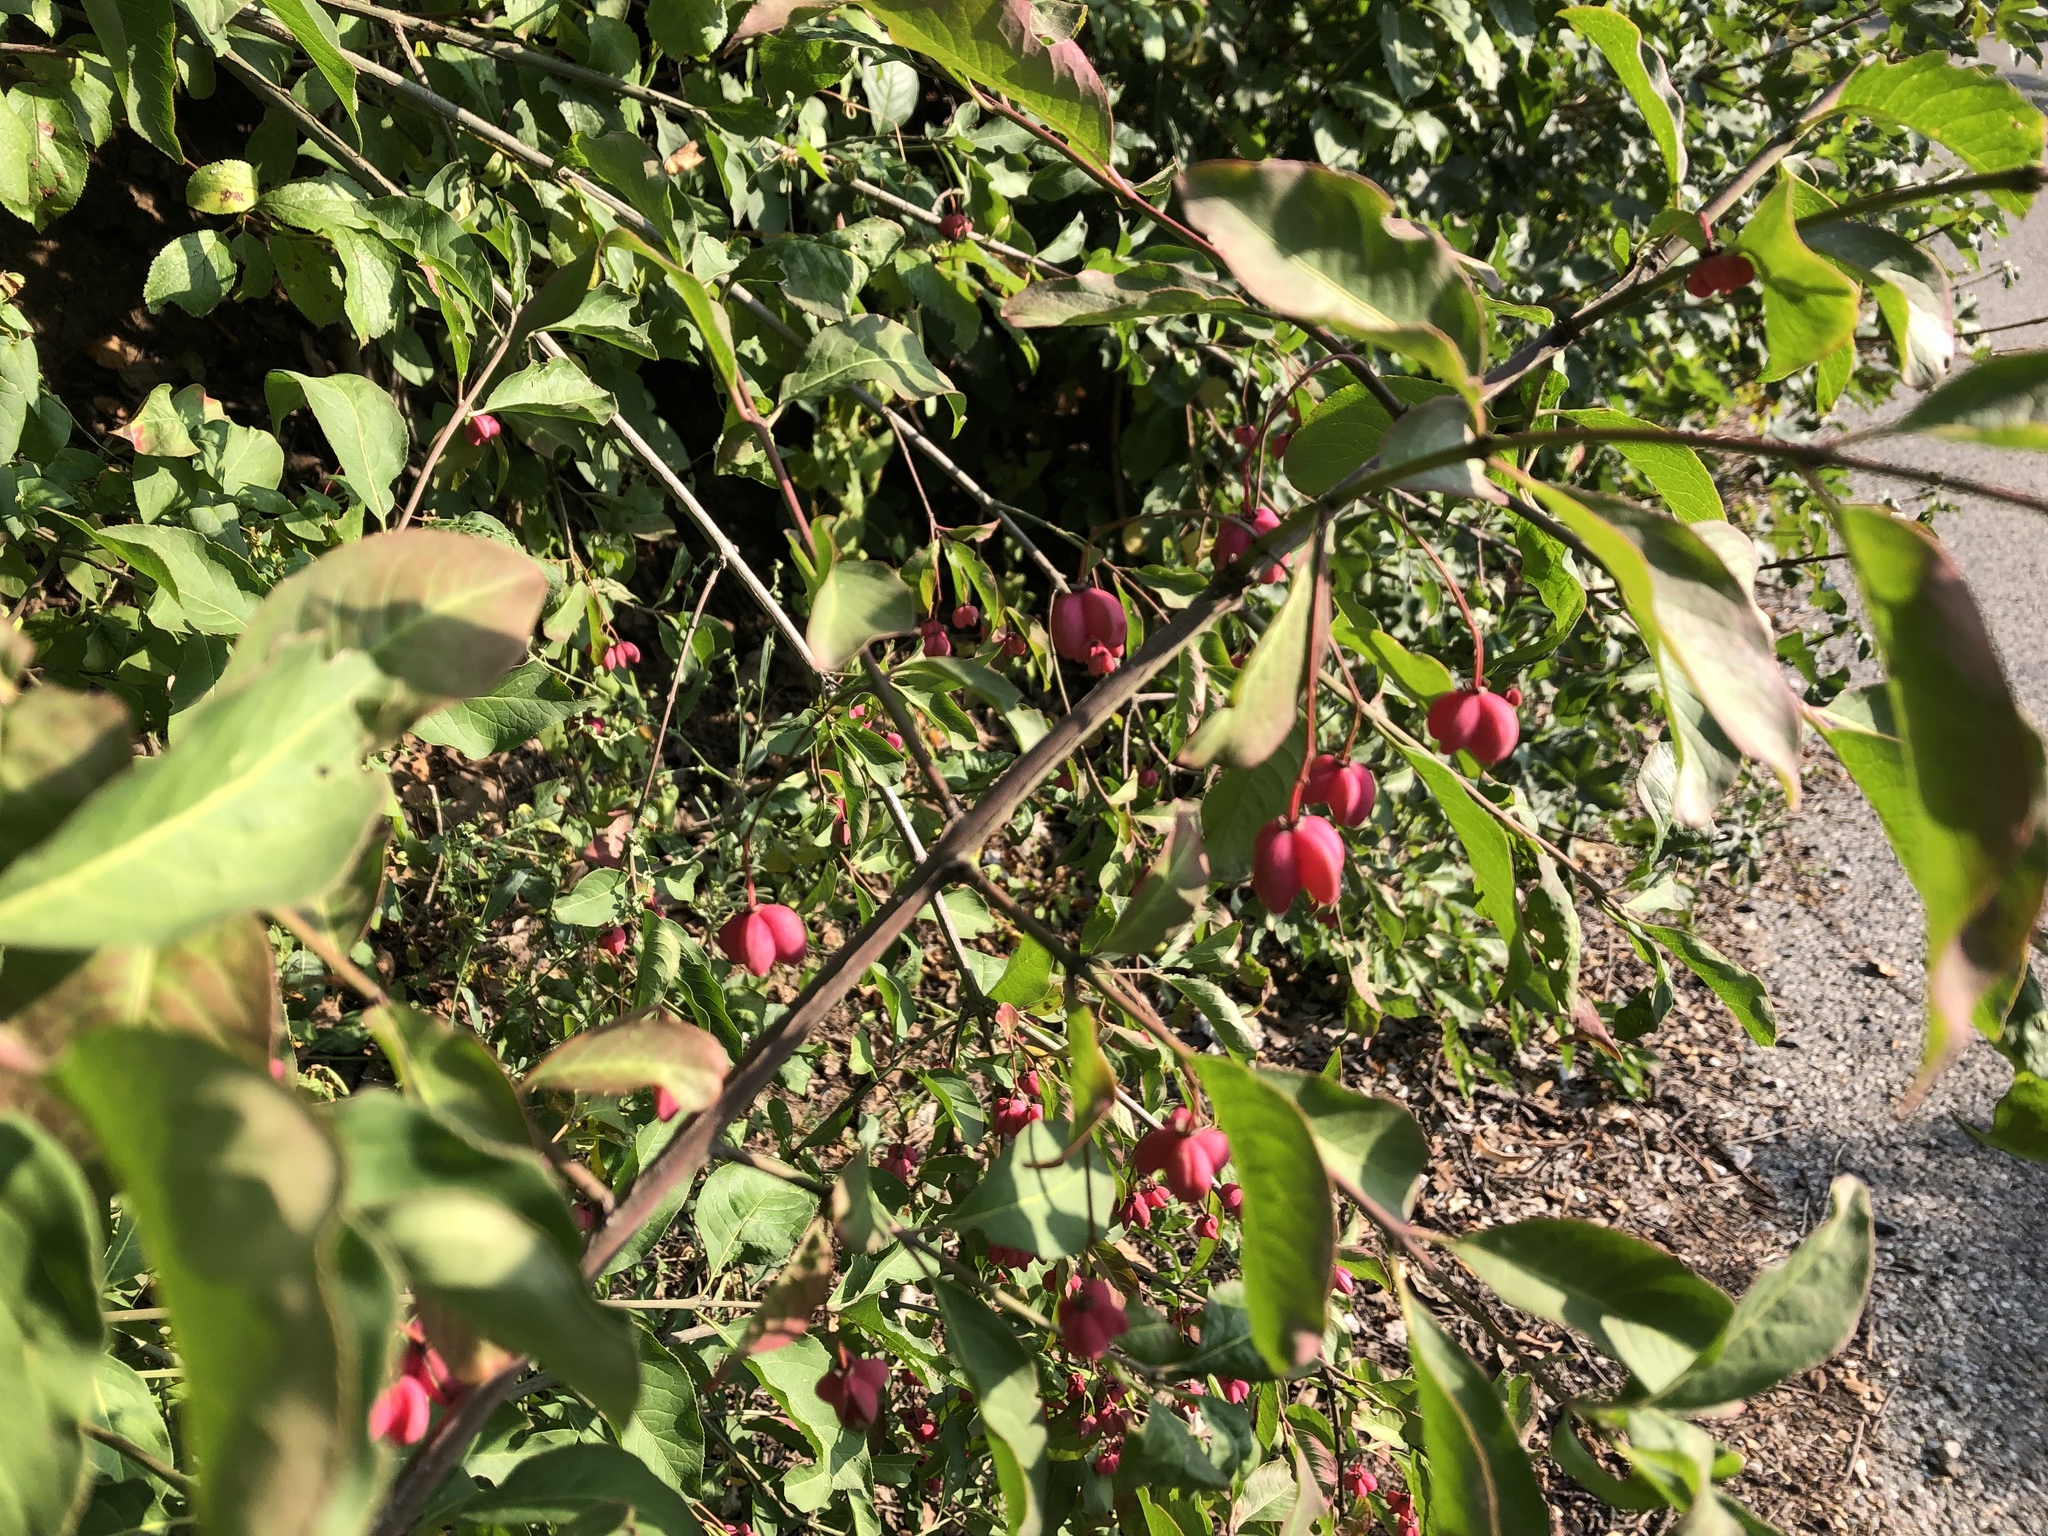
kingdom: Plantae
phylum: Tracheophyta
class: Magnoliopsida
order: Celastrales
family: Celastraceae
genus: Euonymus
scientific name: Euonymus europaeus
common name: Spindle
